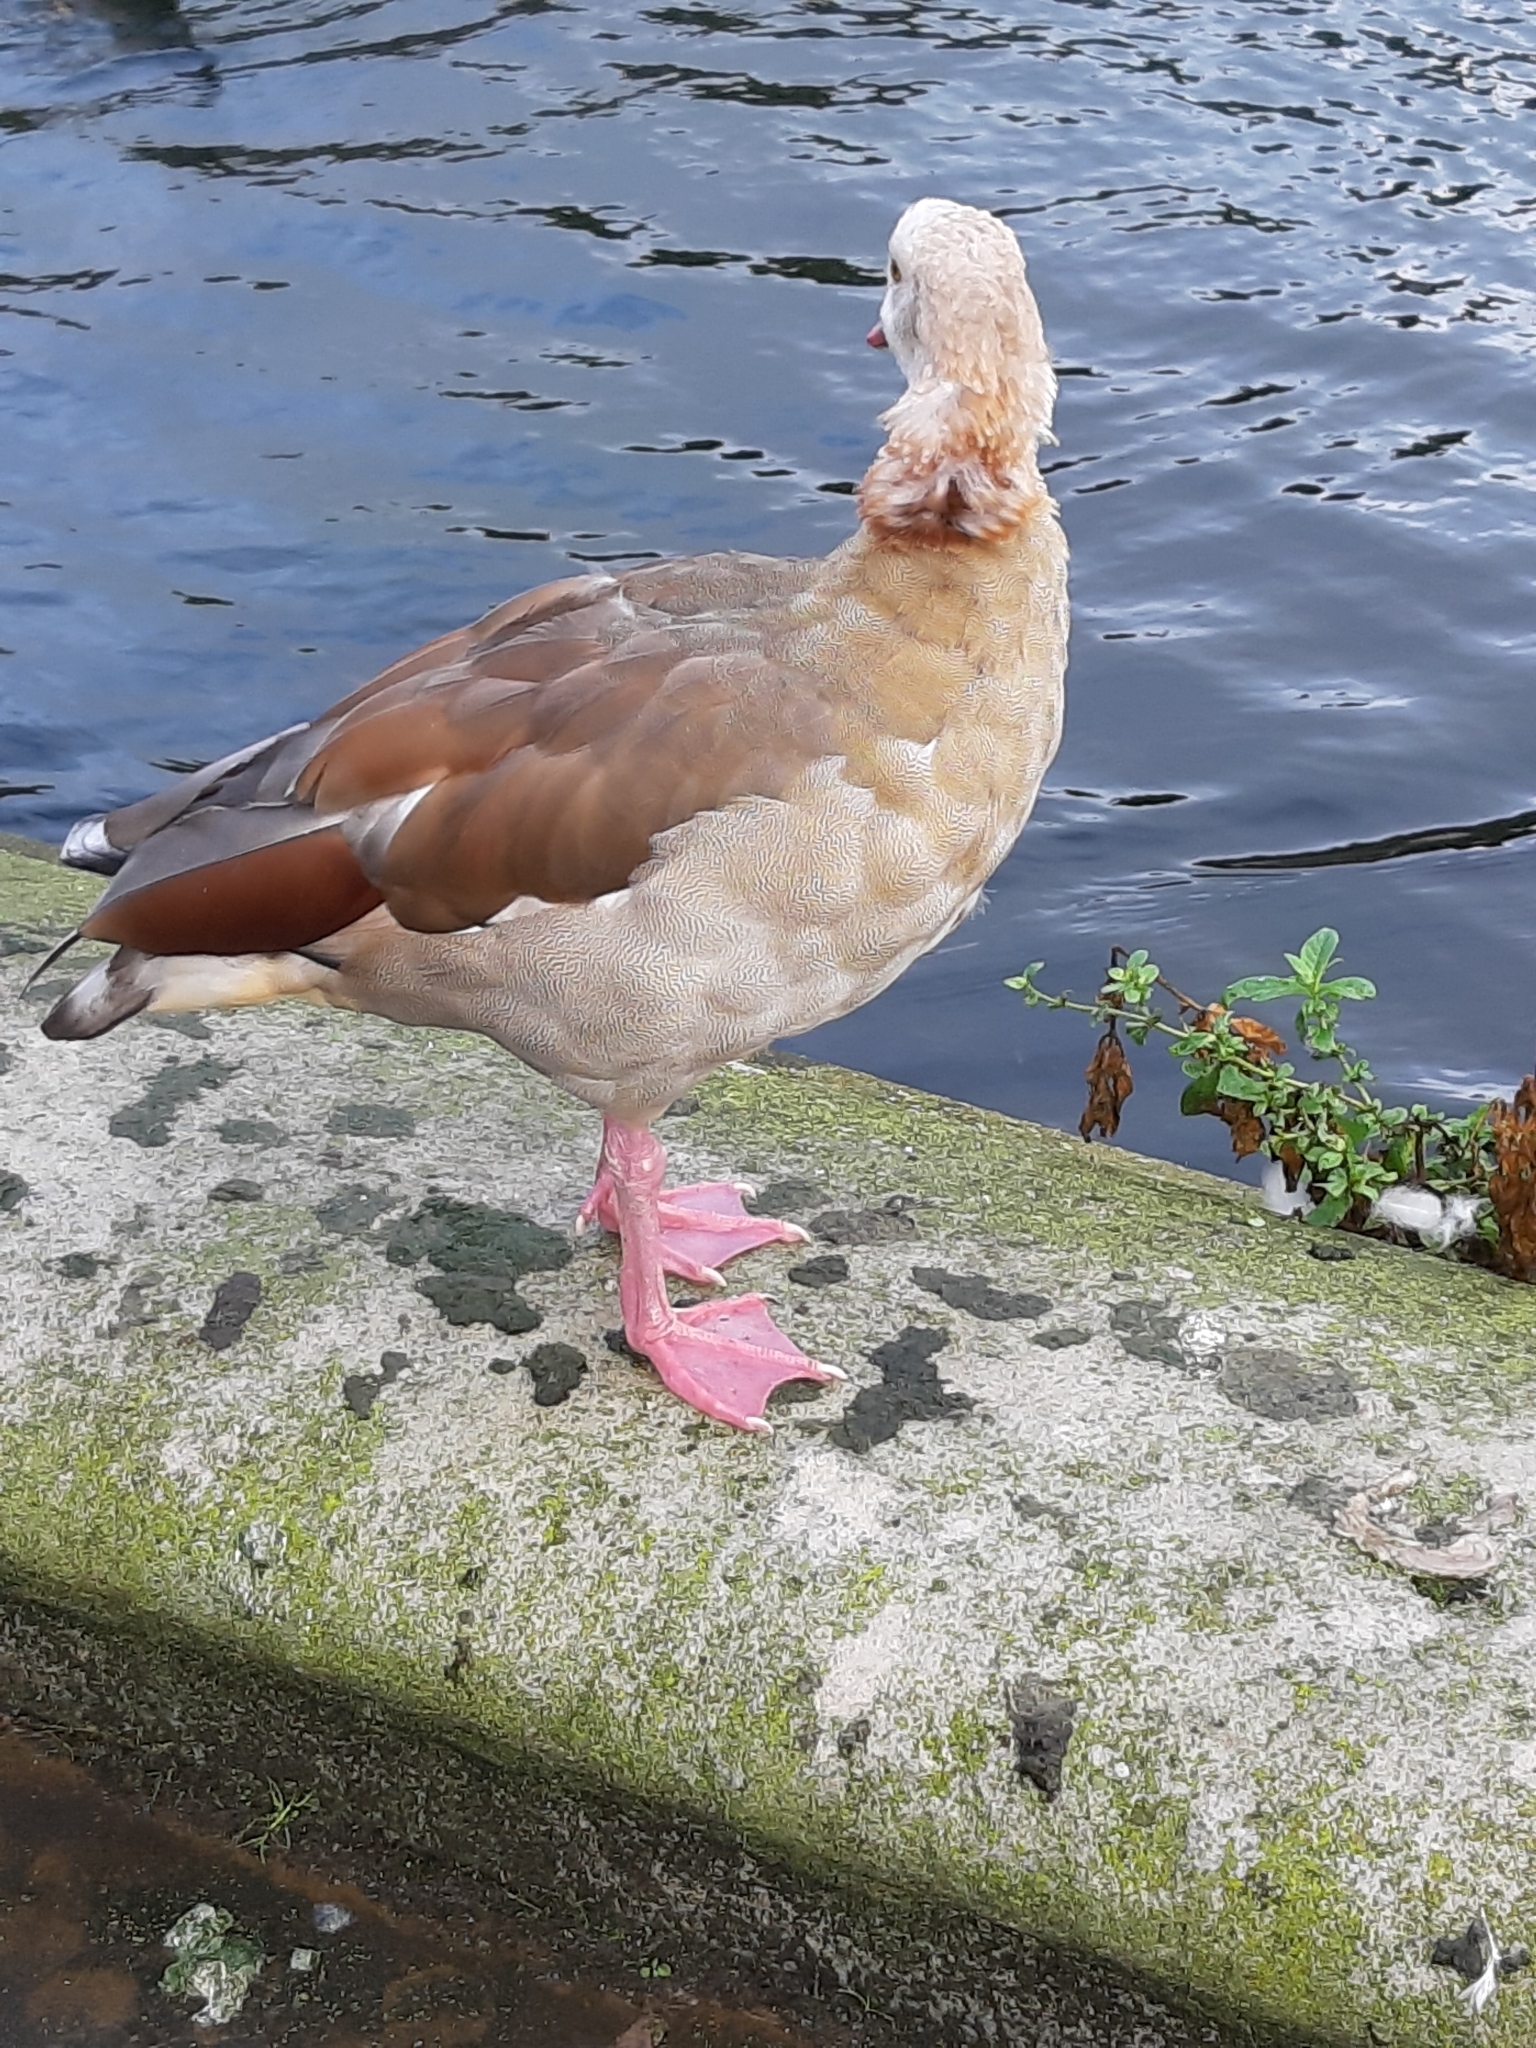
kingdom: Animalia
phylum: Chordata
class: Aves
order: Anseriformes
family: Anatidae
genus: Alopochen
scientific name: Alopochen aegyptiaca
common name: Egyptian goose
